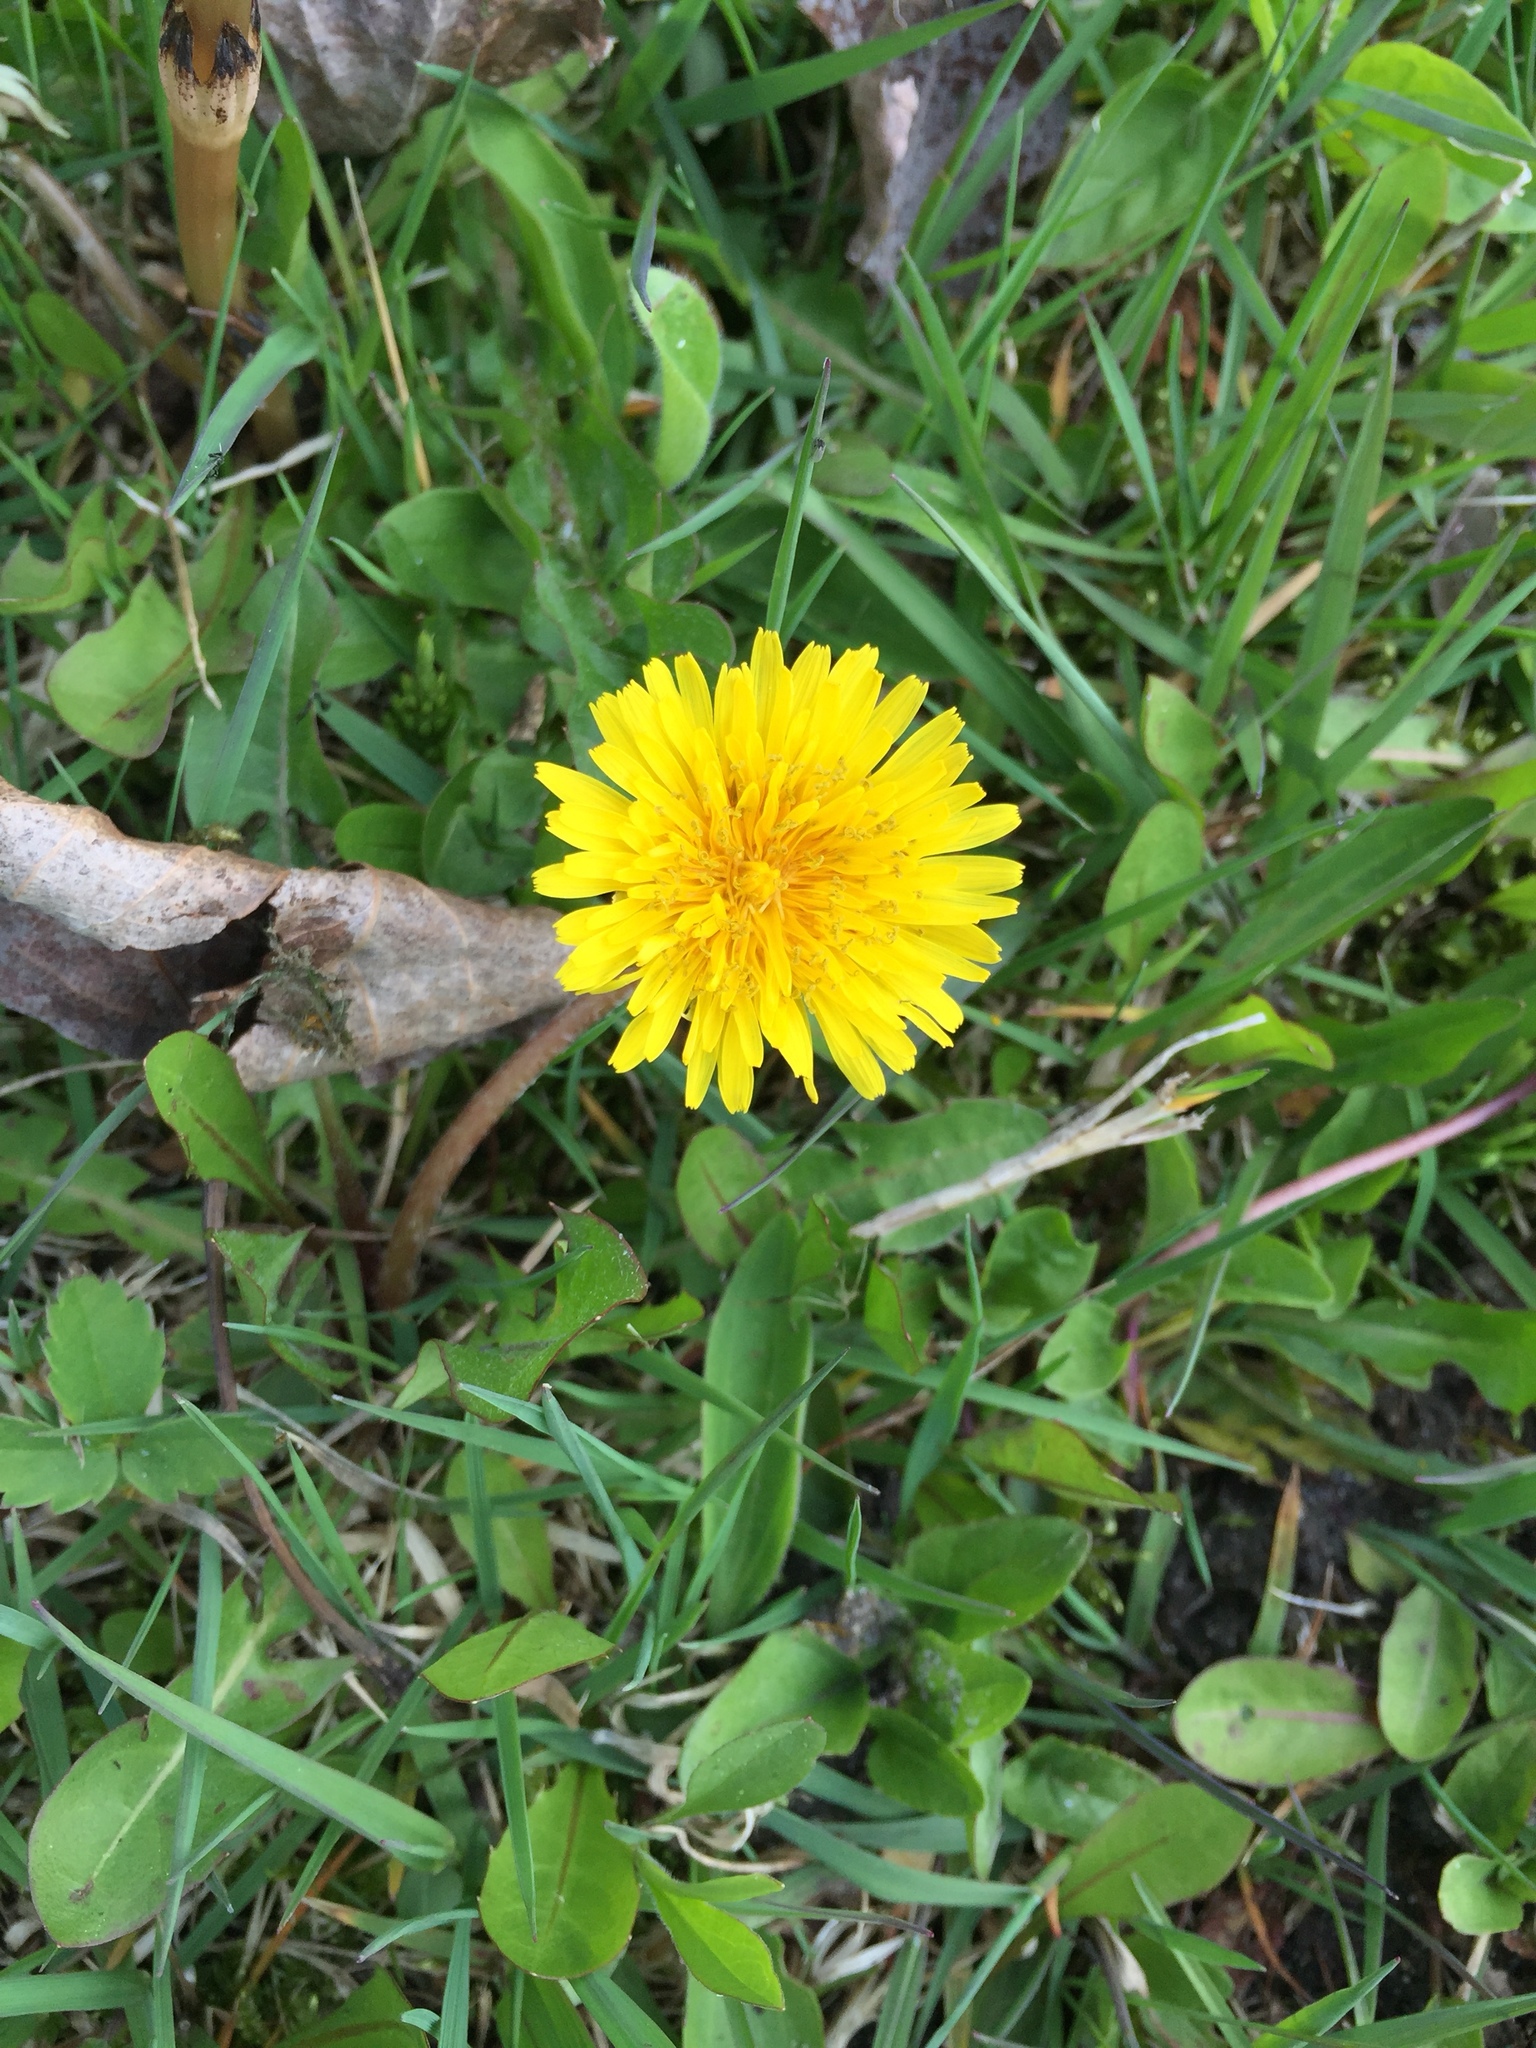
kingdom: Plantae
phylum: Tracheophyta
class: Magnoliopsida
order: Asterales
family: Asteraceae
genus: Taraxacum
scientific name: Taraxacum officinale
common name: Common dandelion
